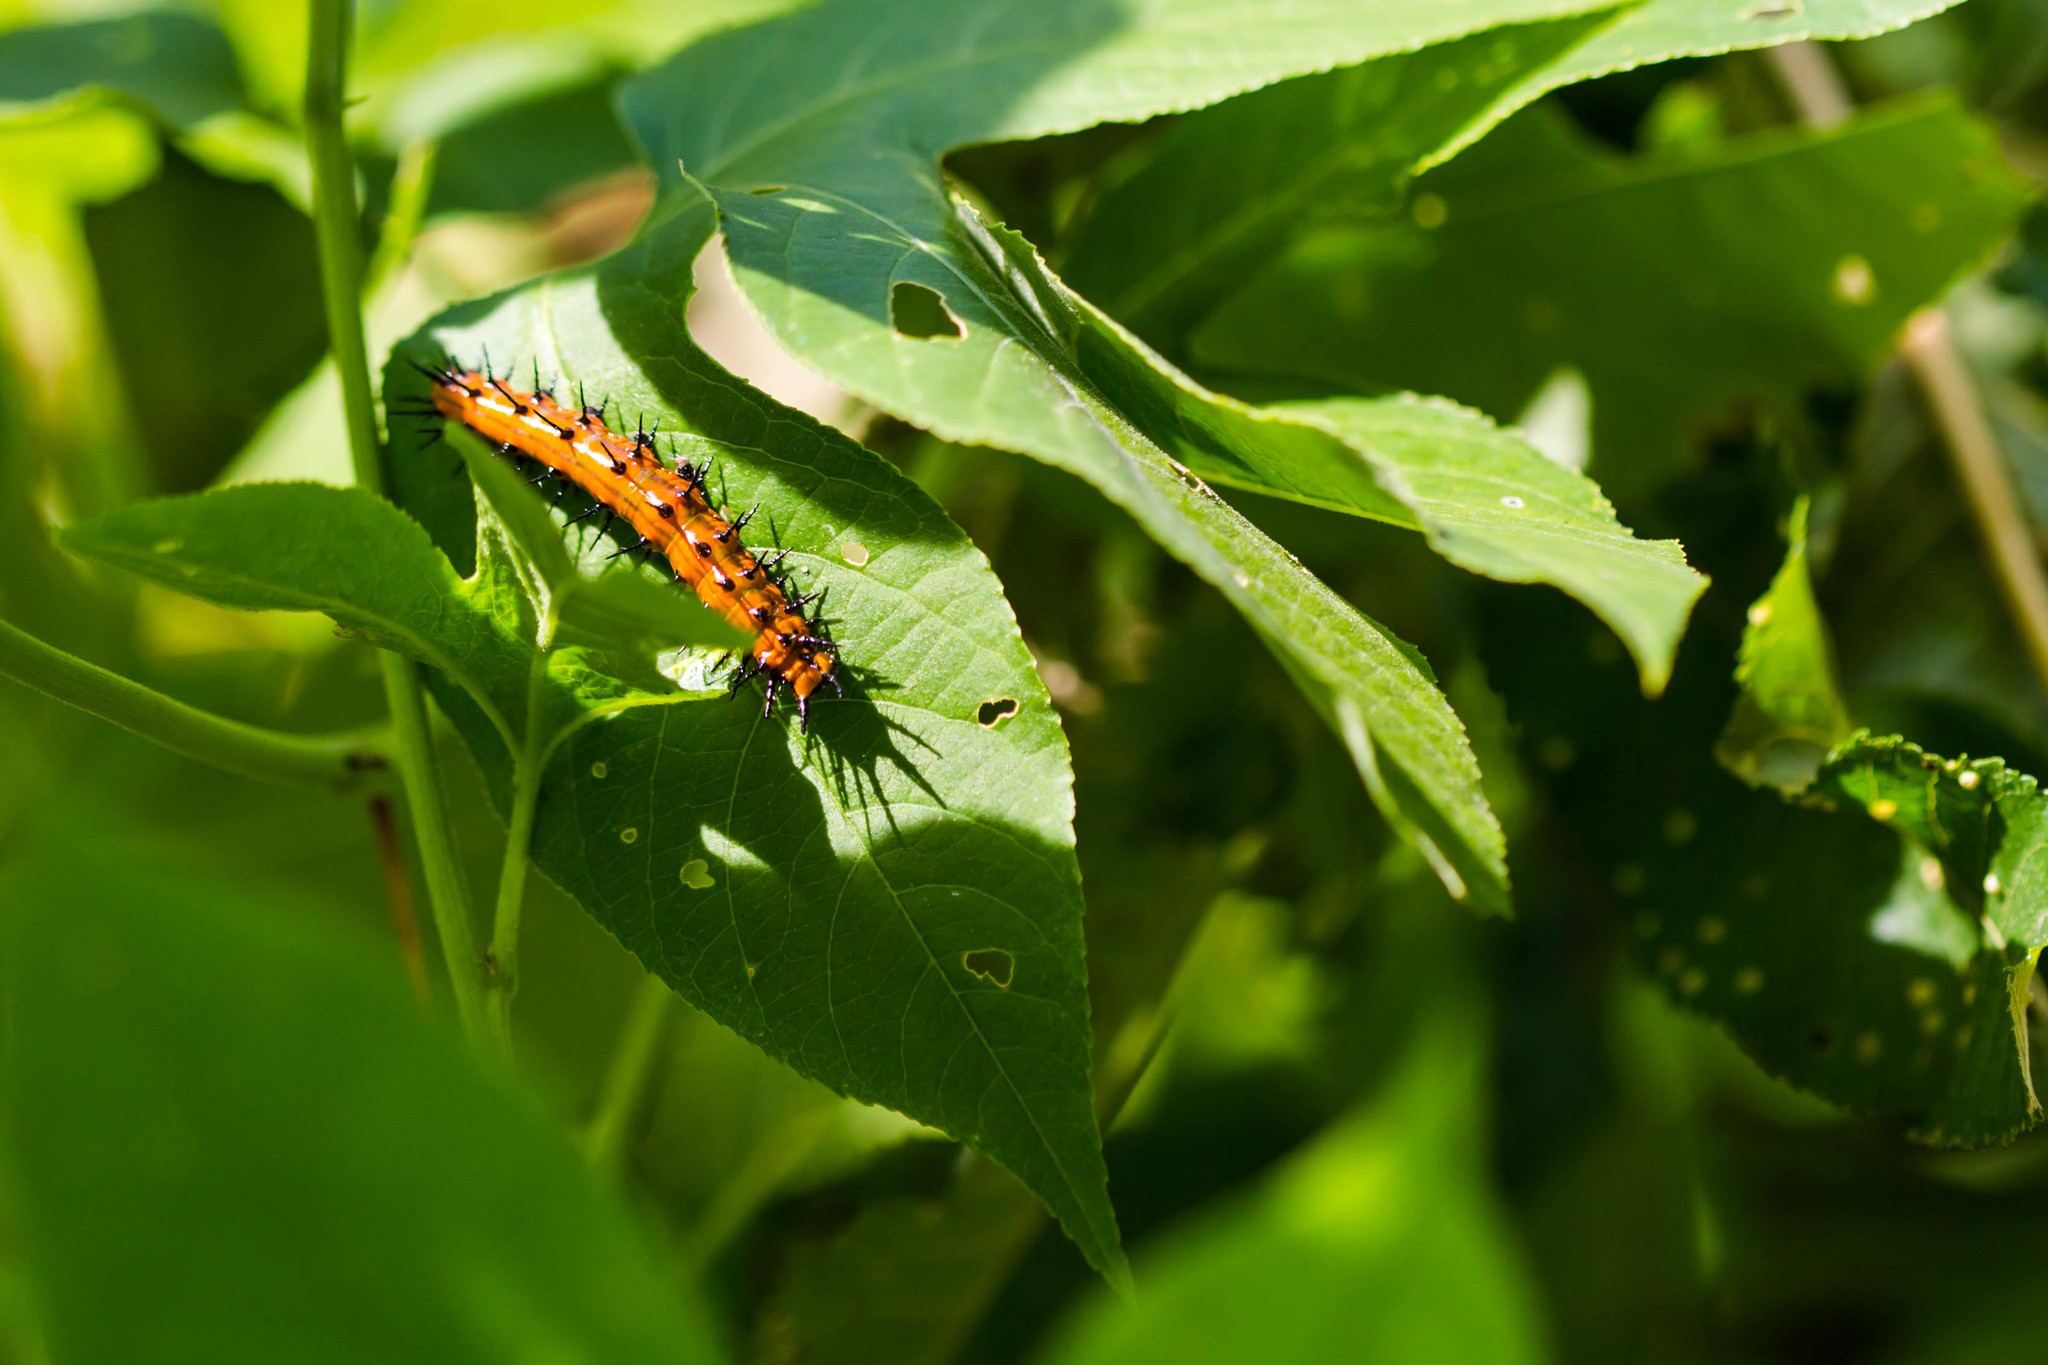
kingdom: Animalia
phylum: Arthropoda
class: Insecta
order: Lepidoptera
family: Nymphalidae
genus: Dione
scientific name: Dione vanillae
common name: Gulf fritillary
